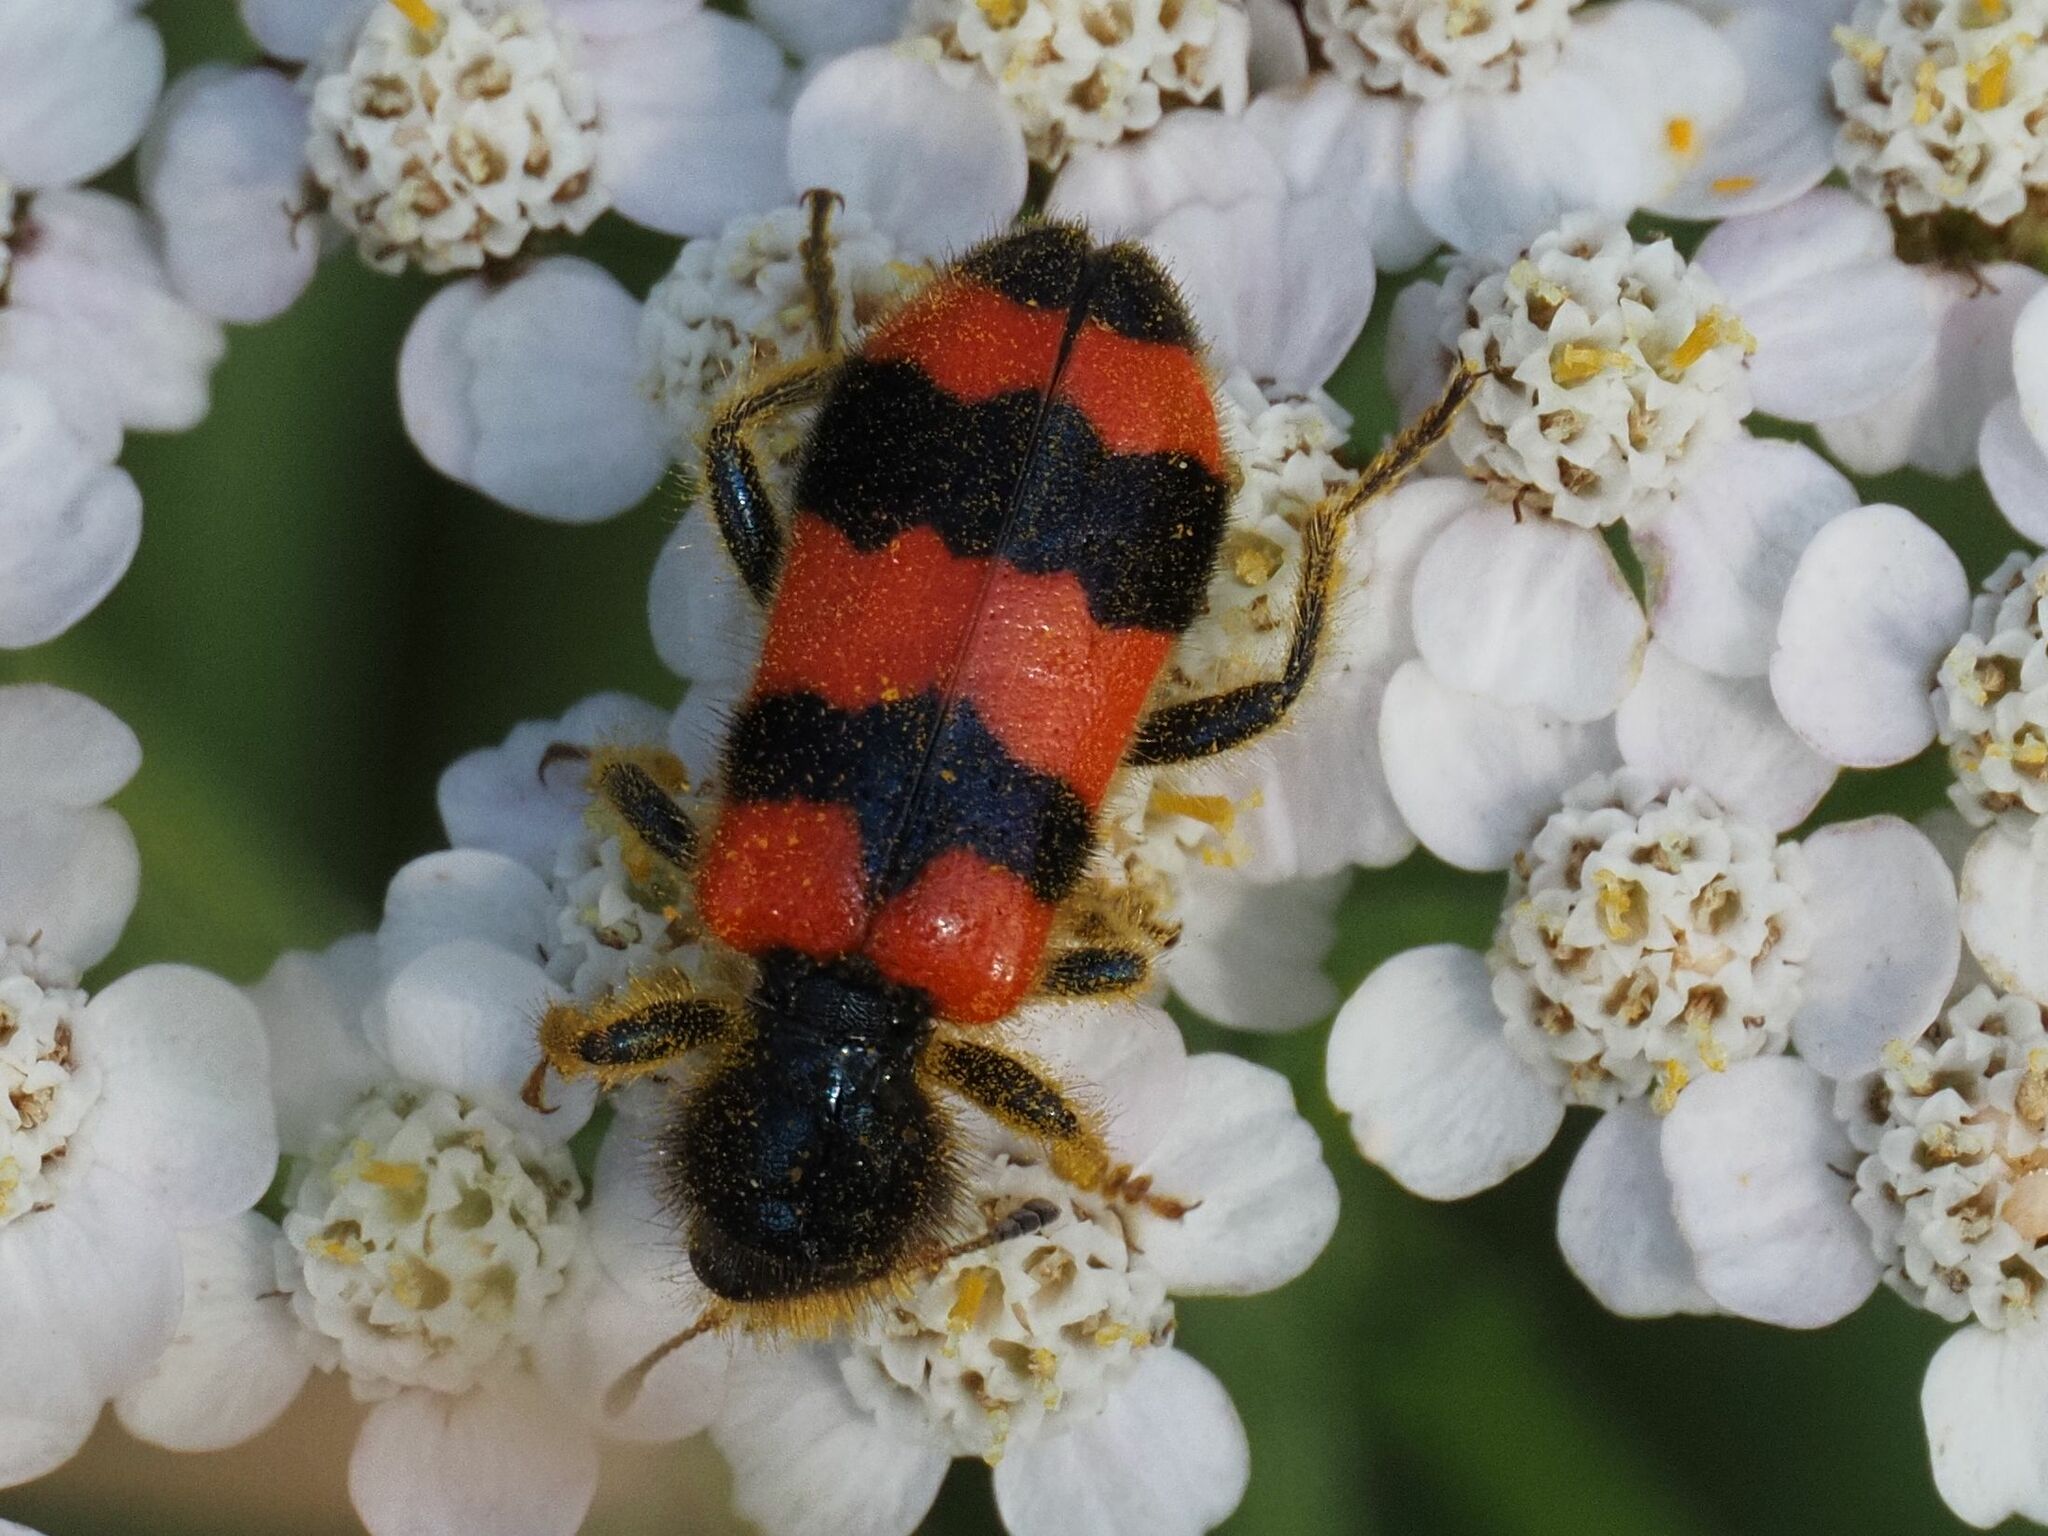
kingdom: Animalia
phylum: Arthropoda
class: Insecta
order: Coleoptera
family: Cleridae
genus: Trichodes
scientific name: Trichodes apiarius
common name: Bee-eating beetle
